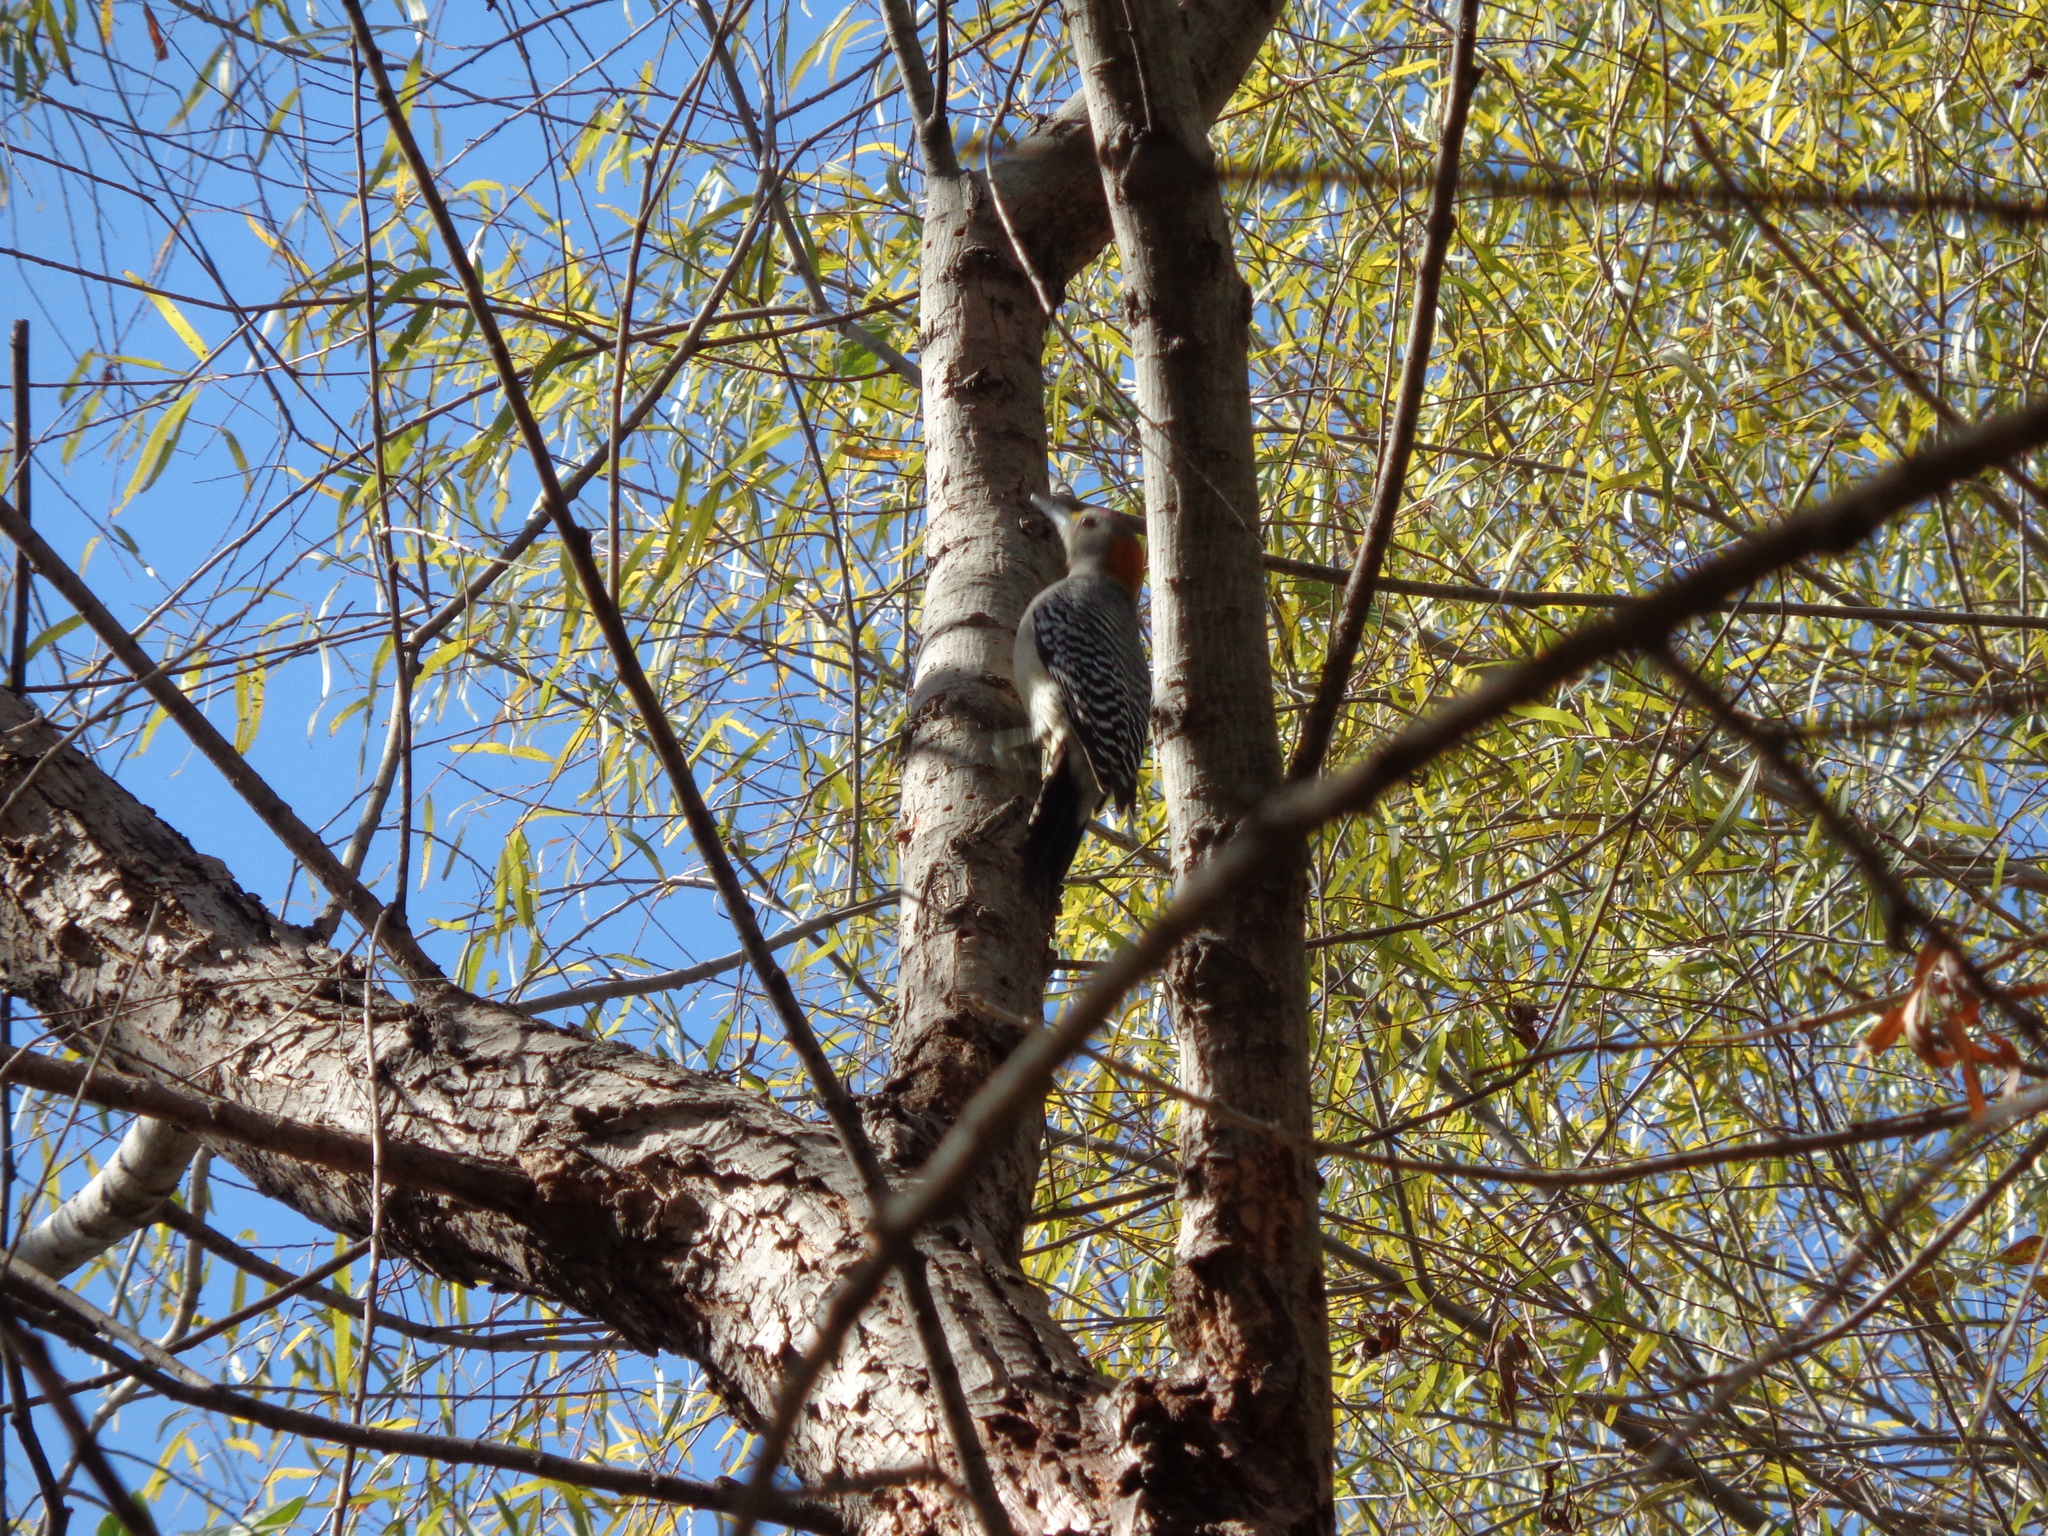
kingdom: Animalia
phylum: Chordata
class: Aves
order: Piciformes
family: Picidae
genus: Melanerpes
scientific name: Melanerpes aurifrons
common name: Golden-fronted woodpecker
